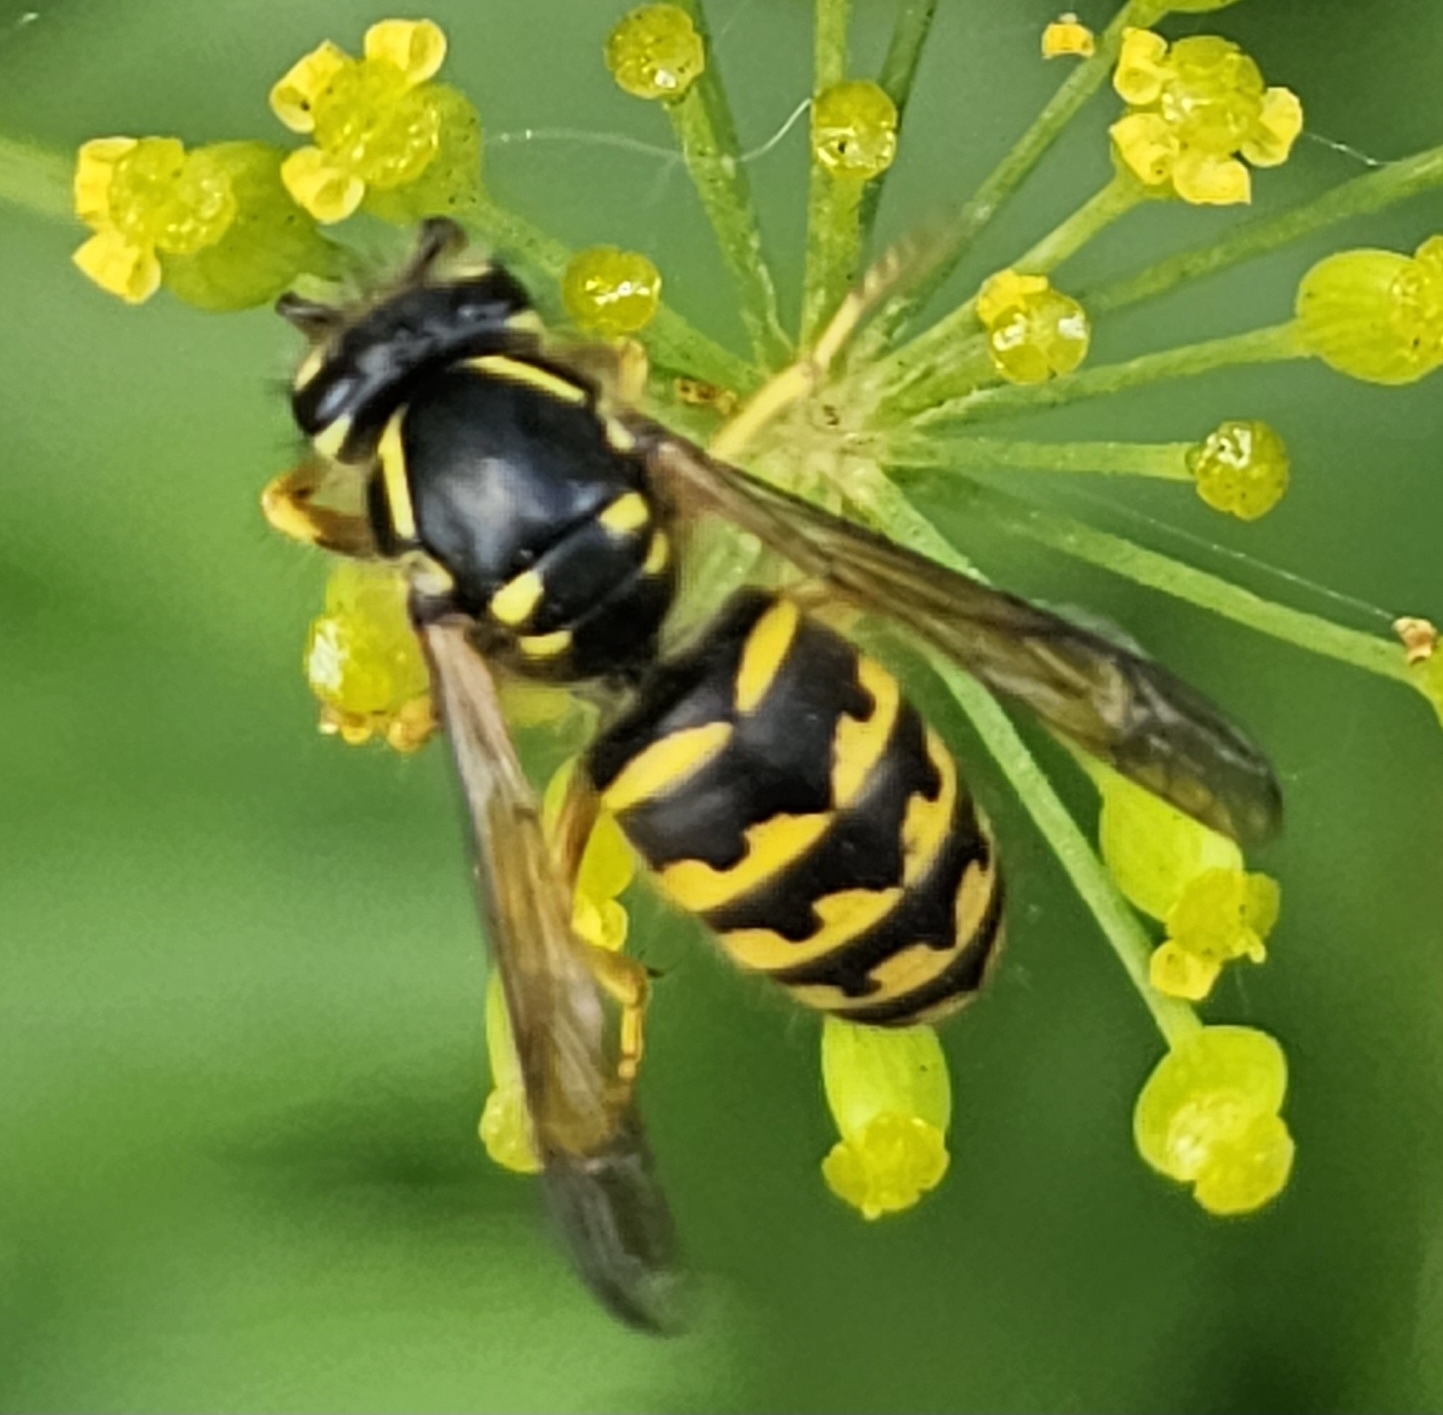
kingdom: Animalia
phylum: Arthropoda
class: Insecta
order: Hymenoptera
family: Vespidae
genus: Dolichovespula
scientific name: Dolichovespula arenaria
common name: Aerial yellowjacket
